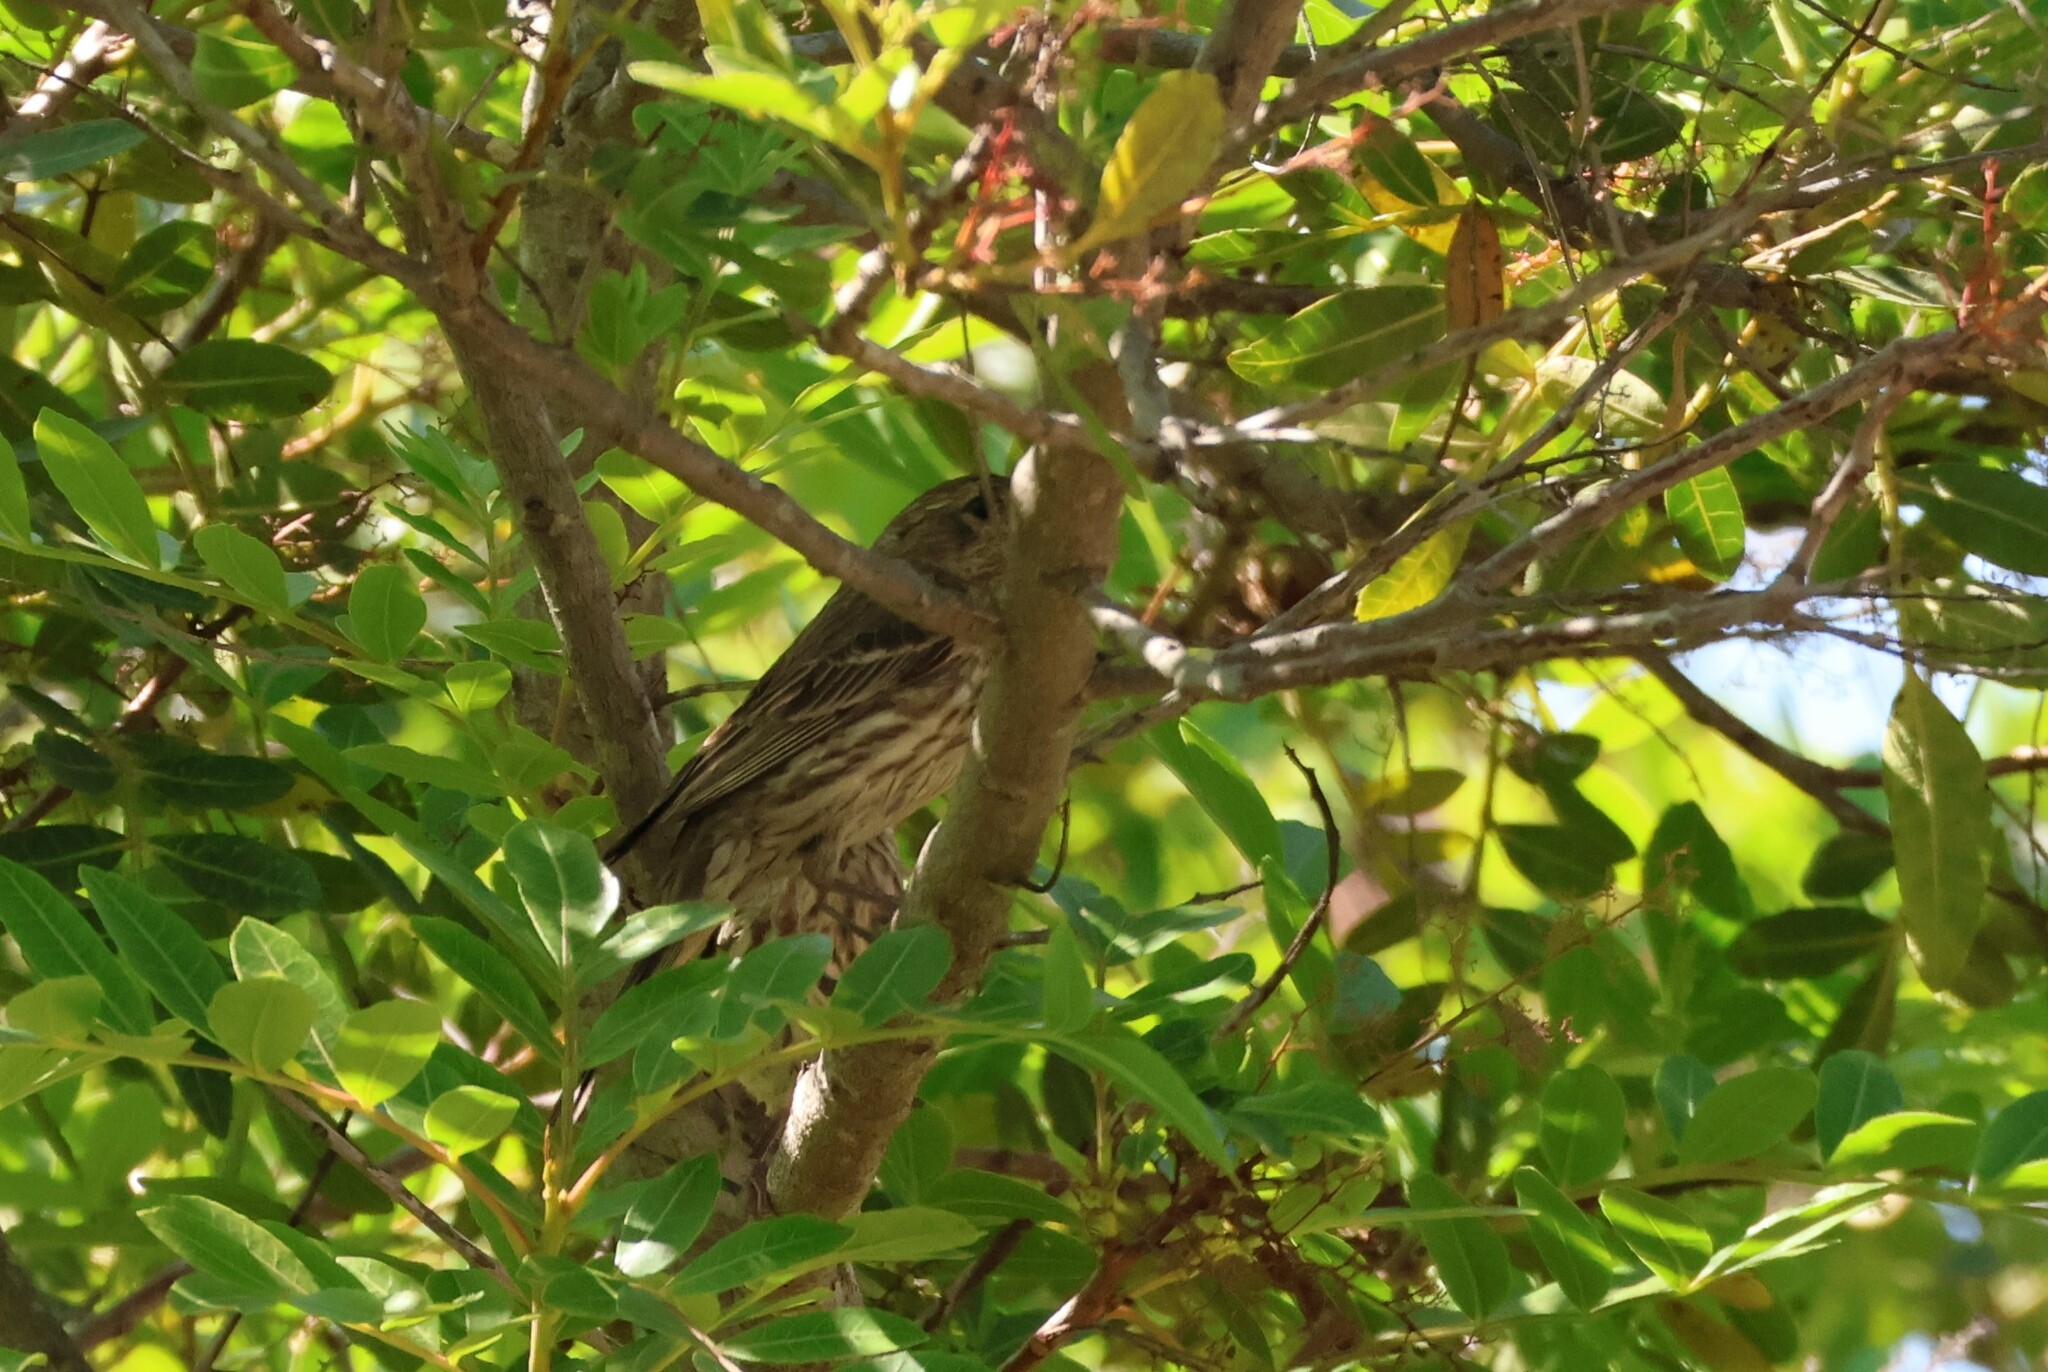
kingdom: Animalia
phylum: Chordata
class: Aves
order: Passeriformes
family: Fringillidae
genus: Haemorhous
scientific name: Haemorhous mexicanus
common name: House finch
